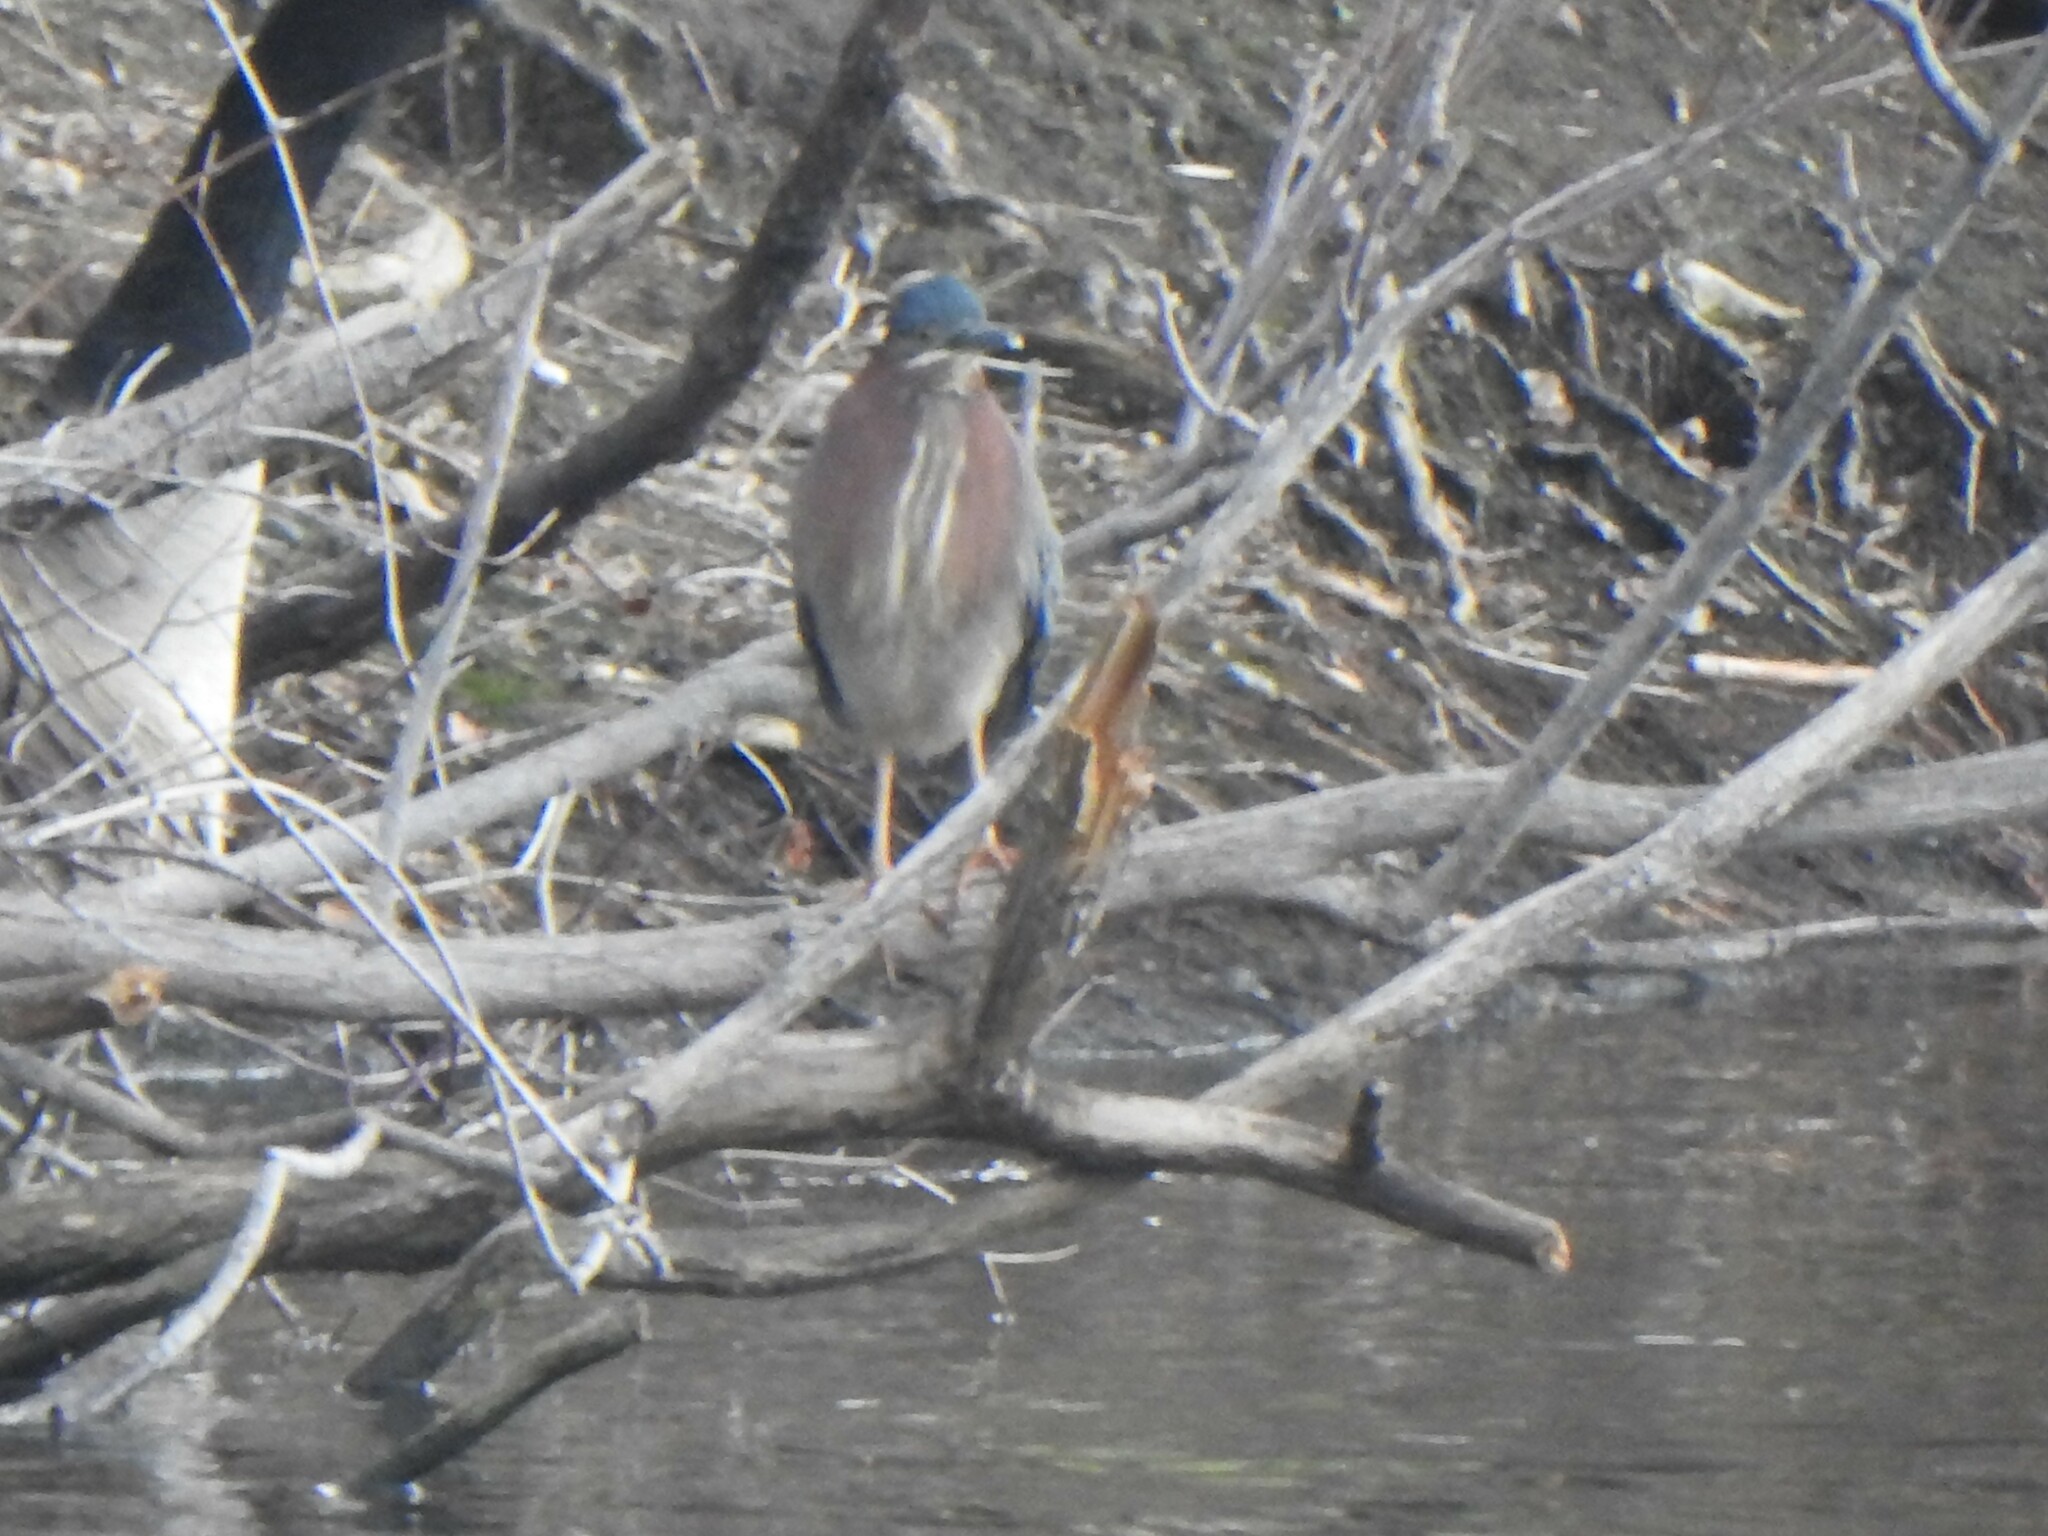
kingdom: Animalia
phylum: Chordata
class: Aves
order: Pelecaniformes
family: Ardeidae
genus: Butorides
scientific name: Butorides virescens
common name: Green heron
